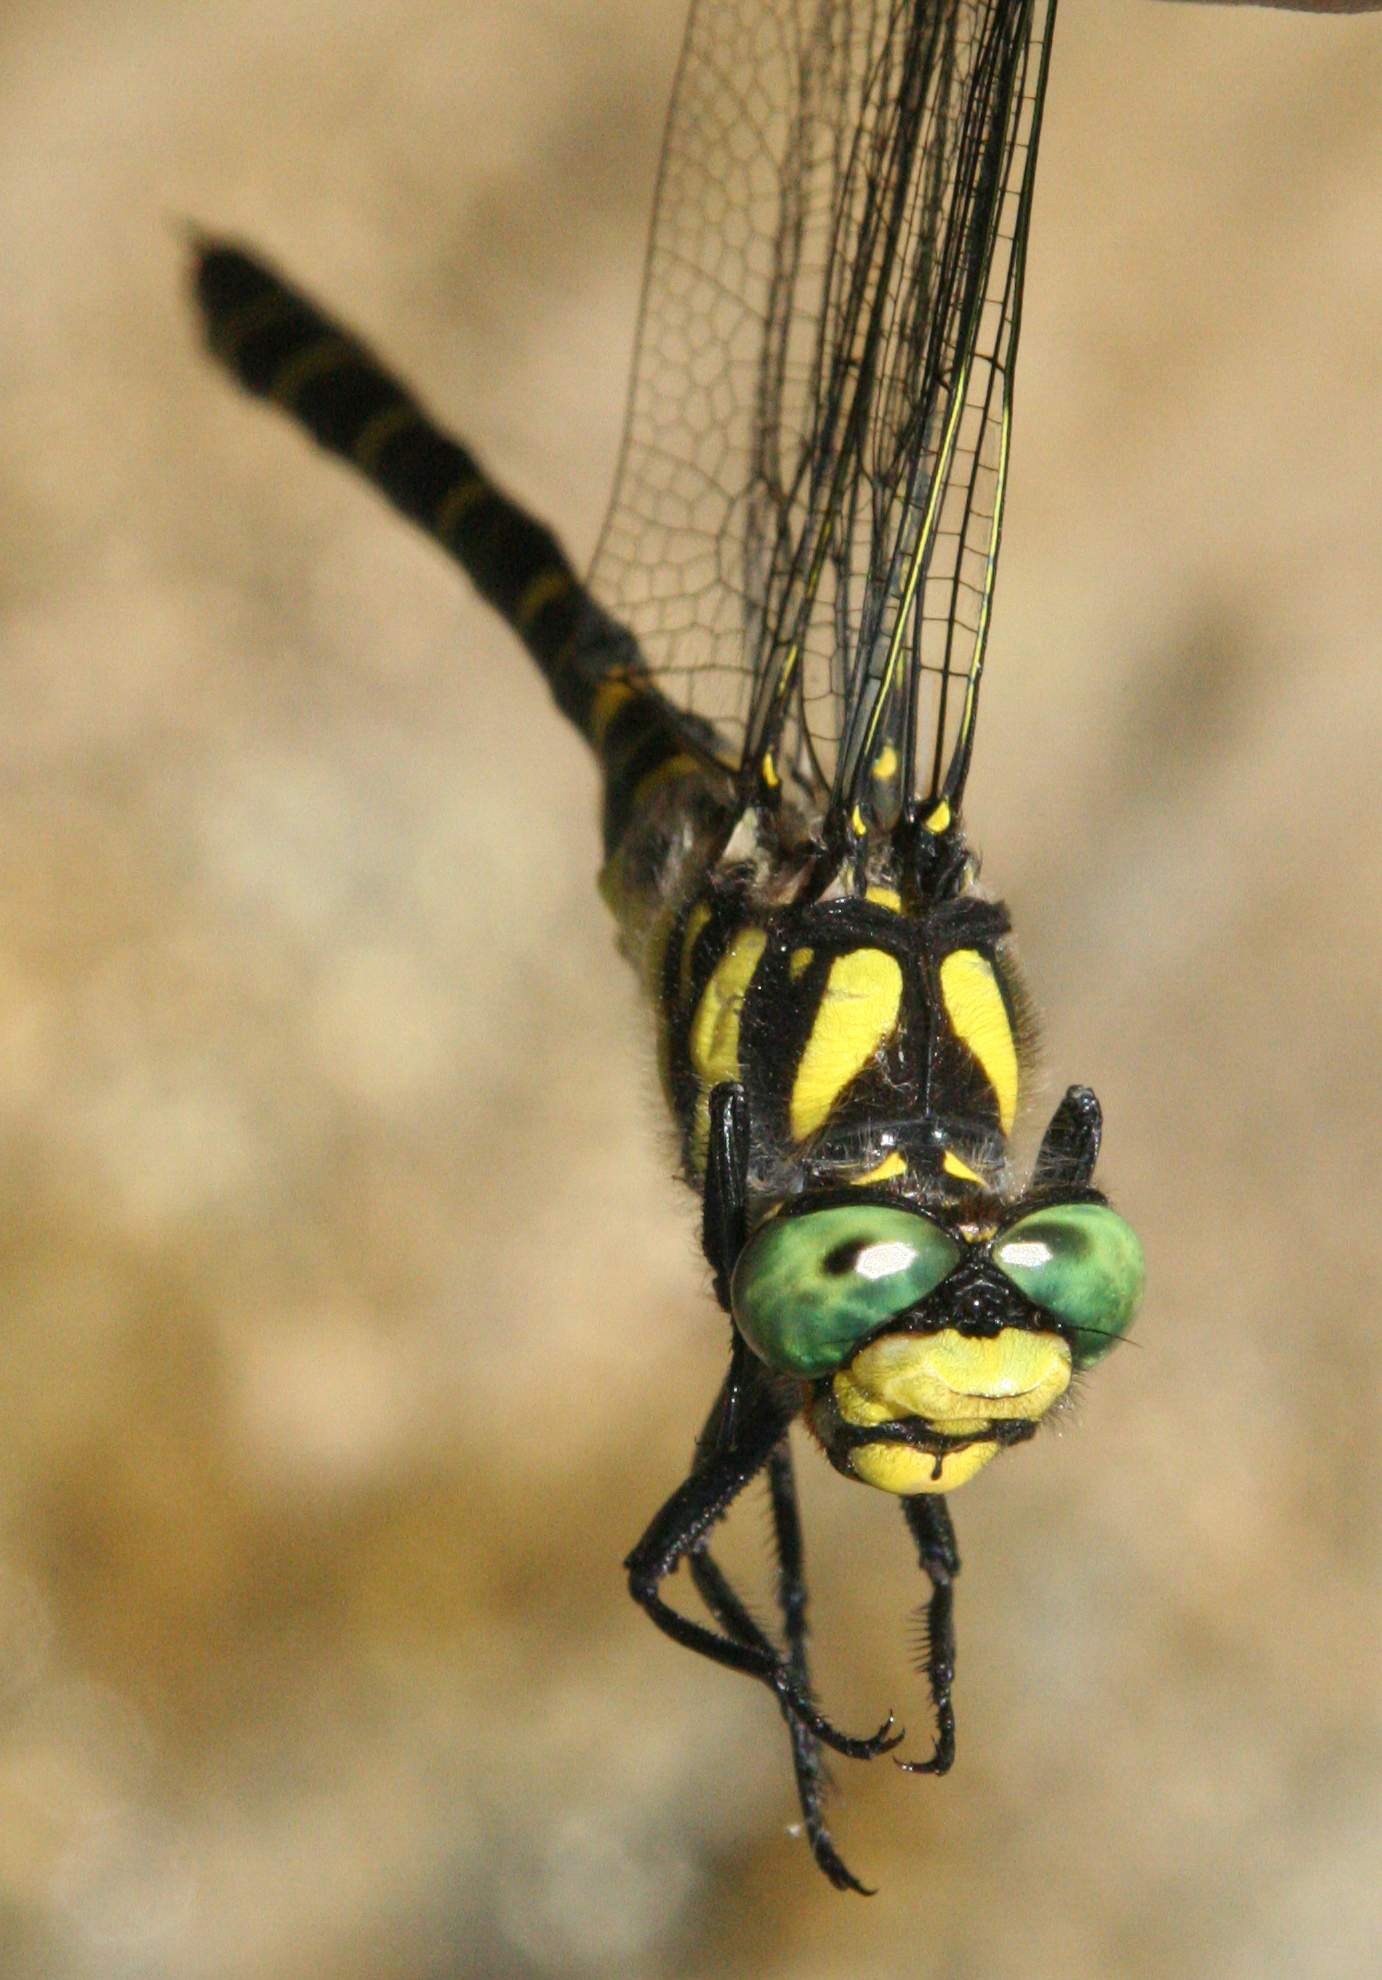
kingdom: Animalia
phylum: Arthropoda
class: Insecta
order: Odonata
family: Cordulegastridae
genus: Cordulegaster
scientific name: Cordulegaster picta
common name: Turkish goldenring
